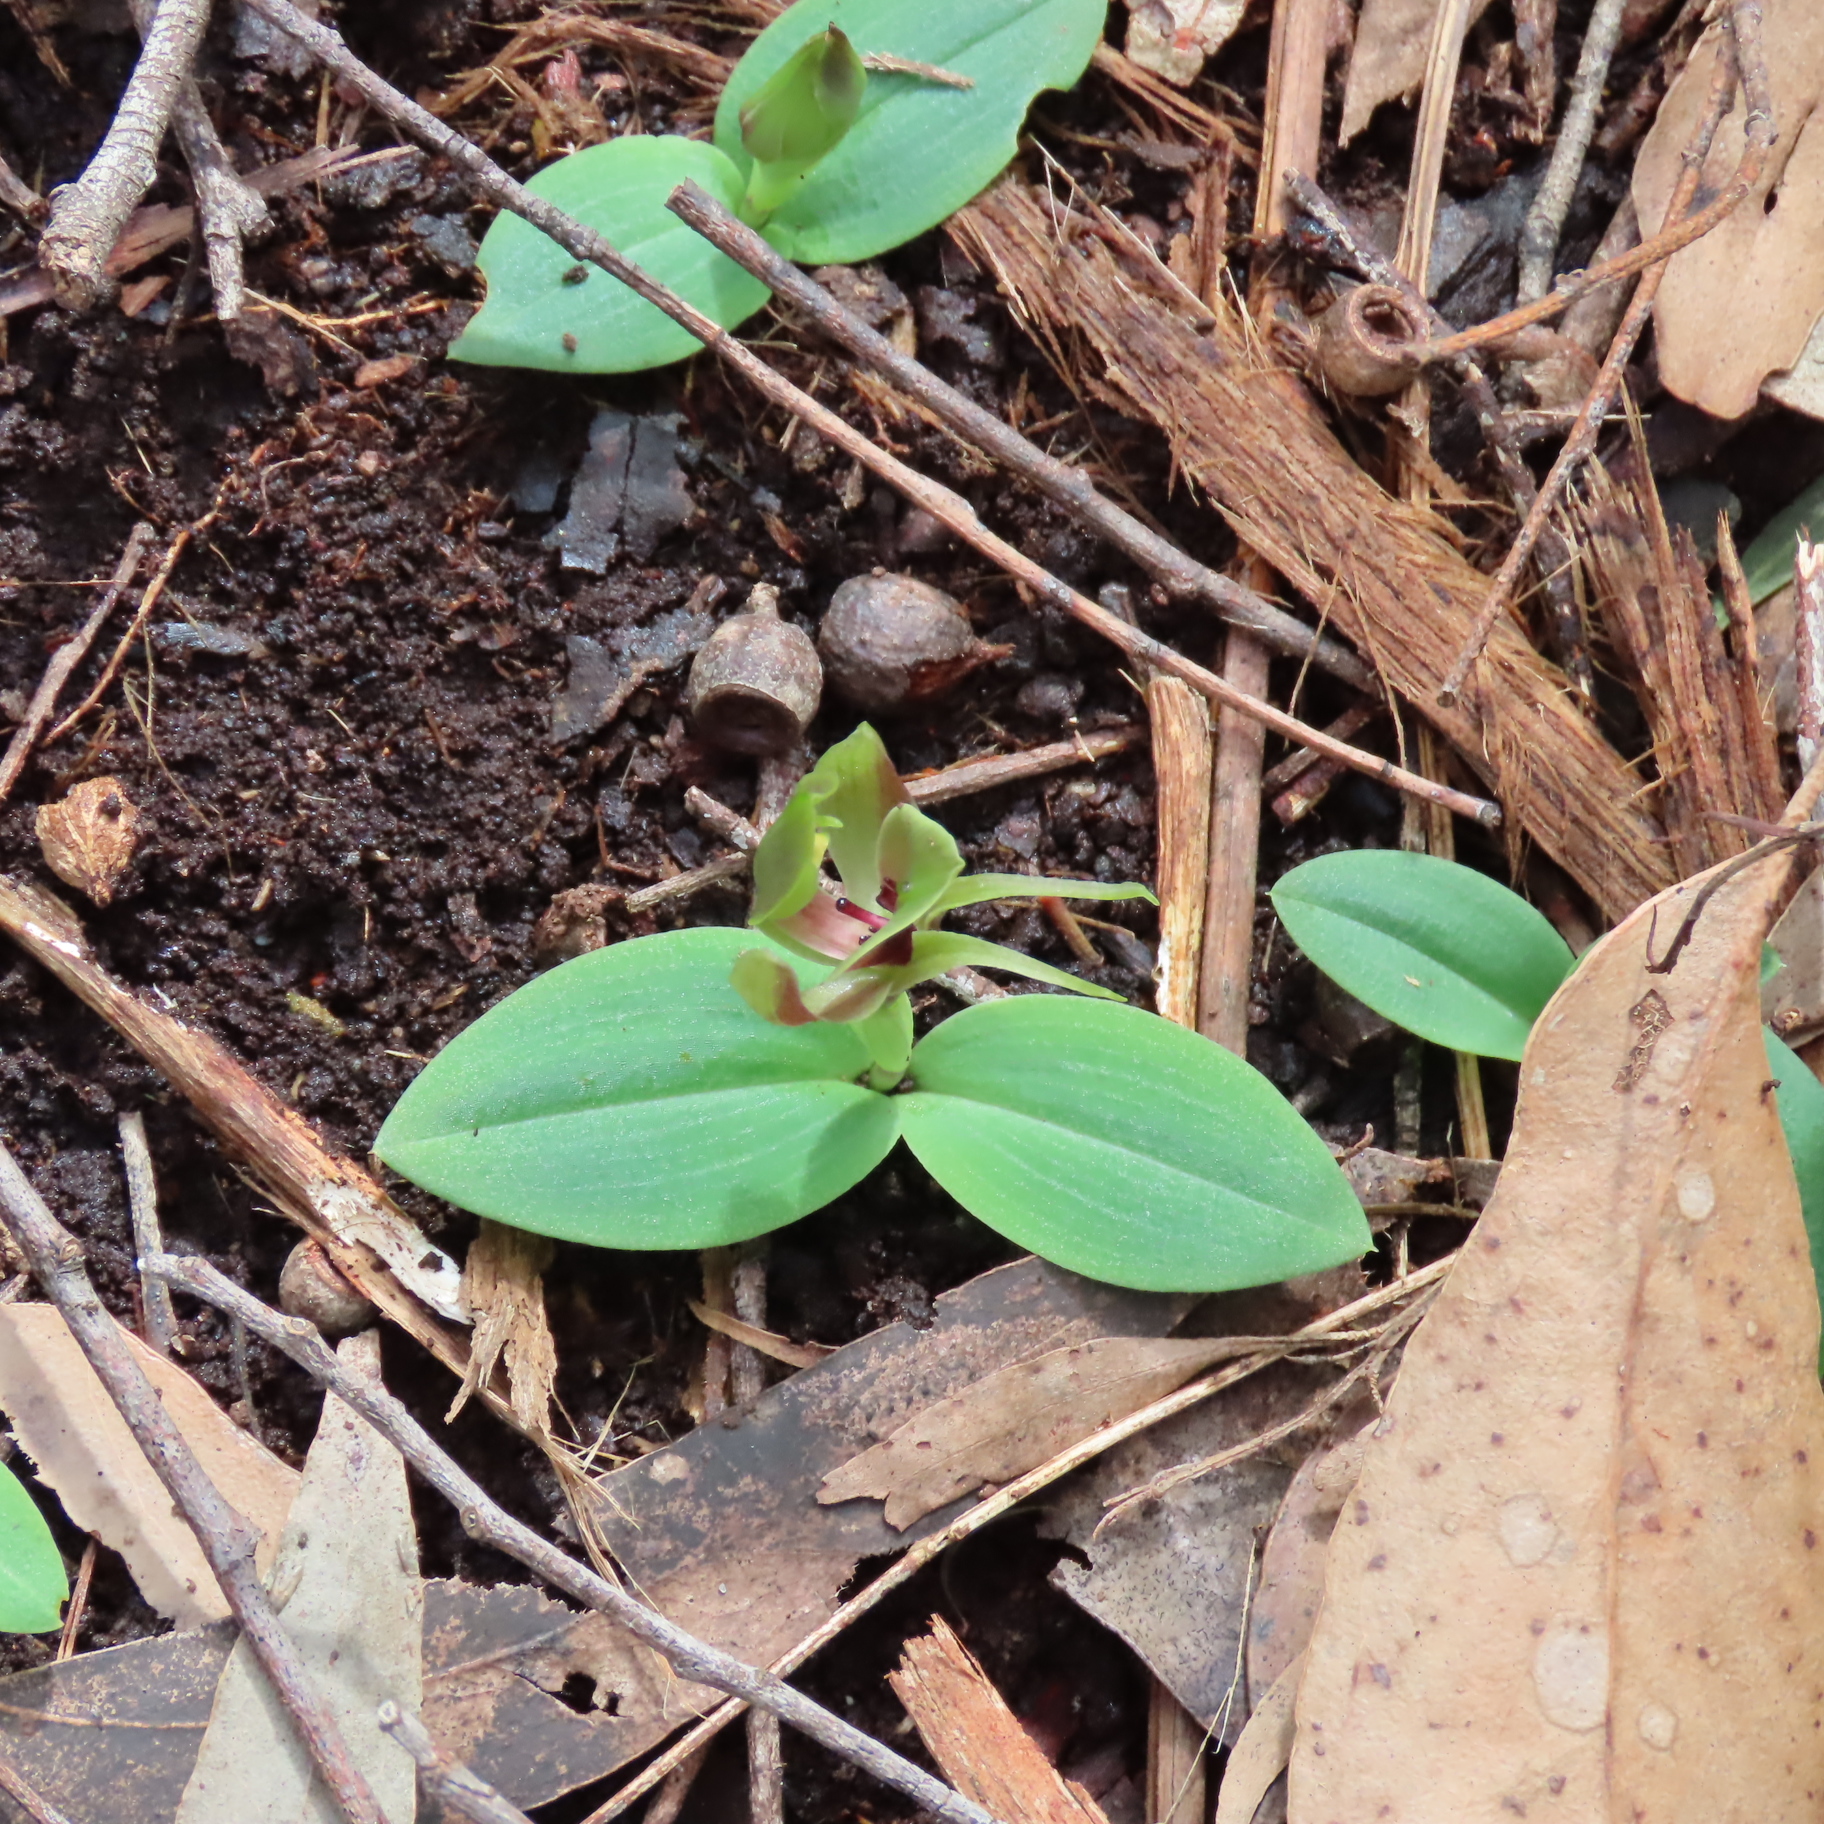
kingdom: Plantae
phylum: Tracheophyta
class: Liliopsida
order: Asparagales
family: Orchidaceae
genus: Chiloglottis
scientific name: Chiloglottis valida
